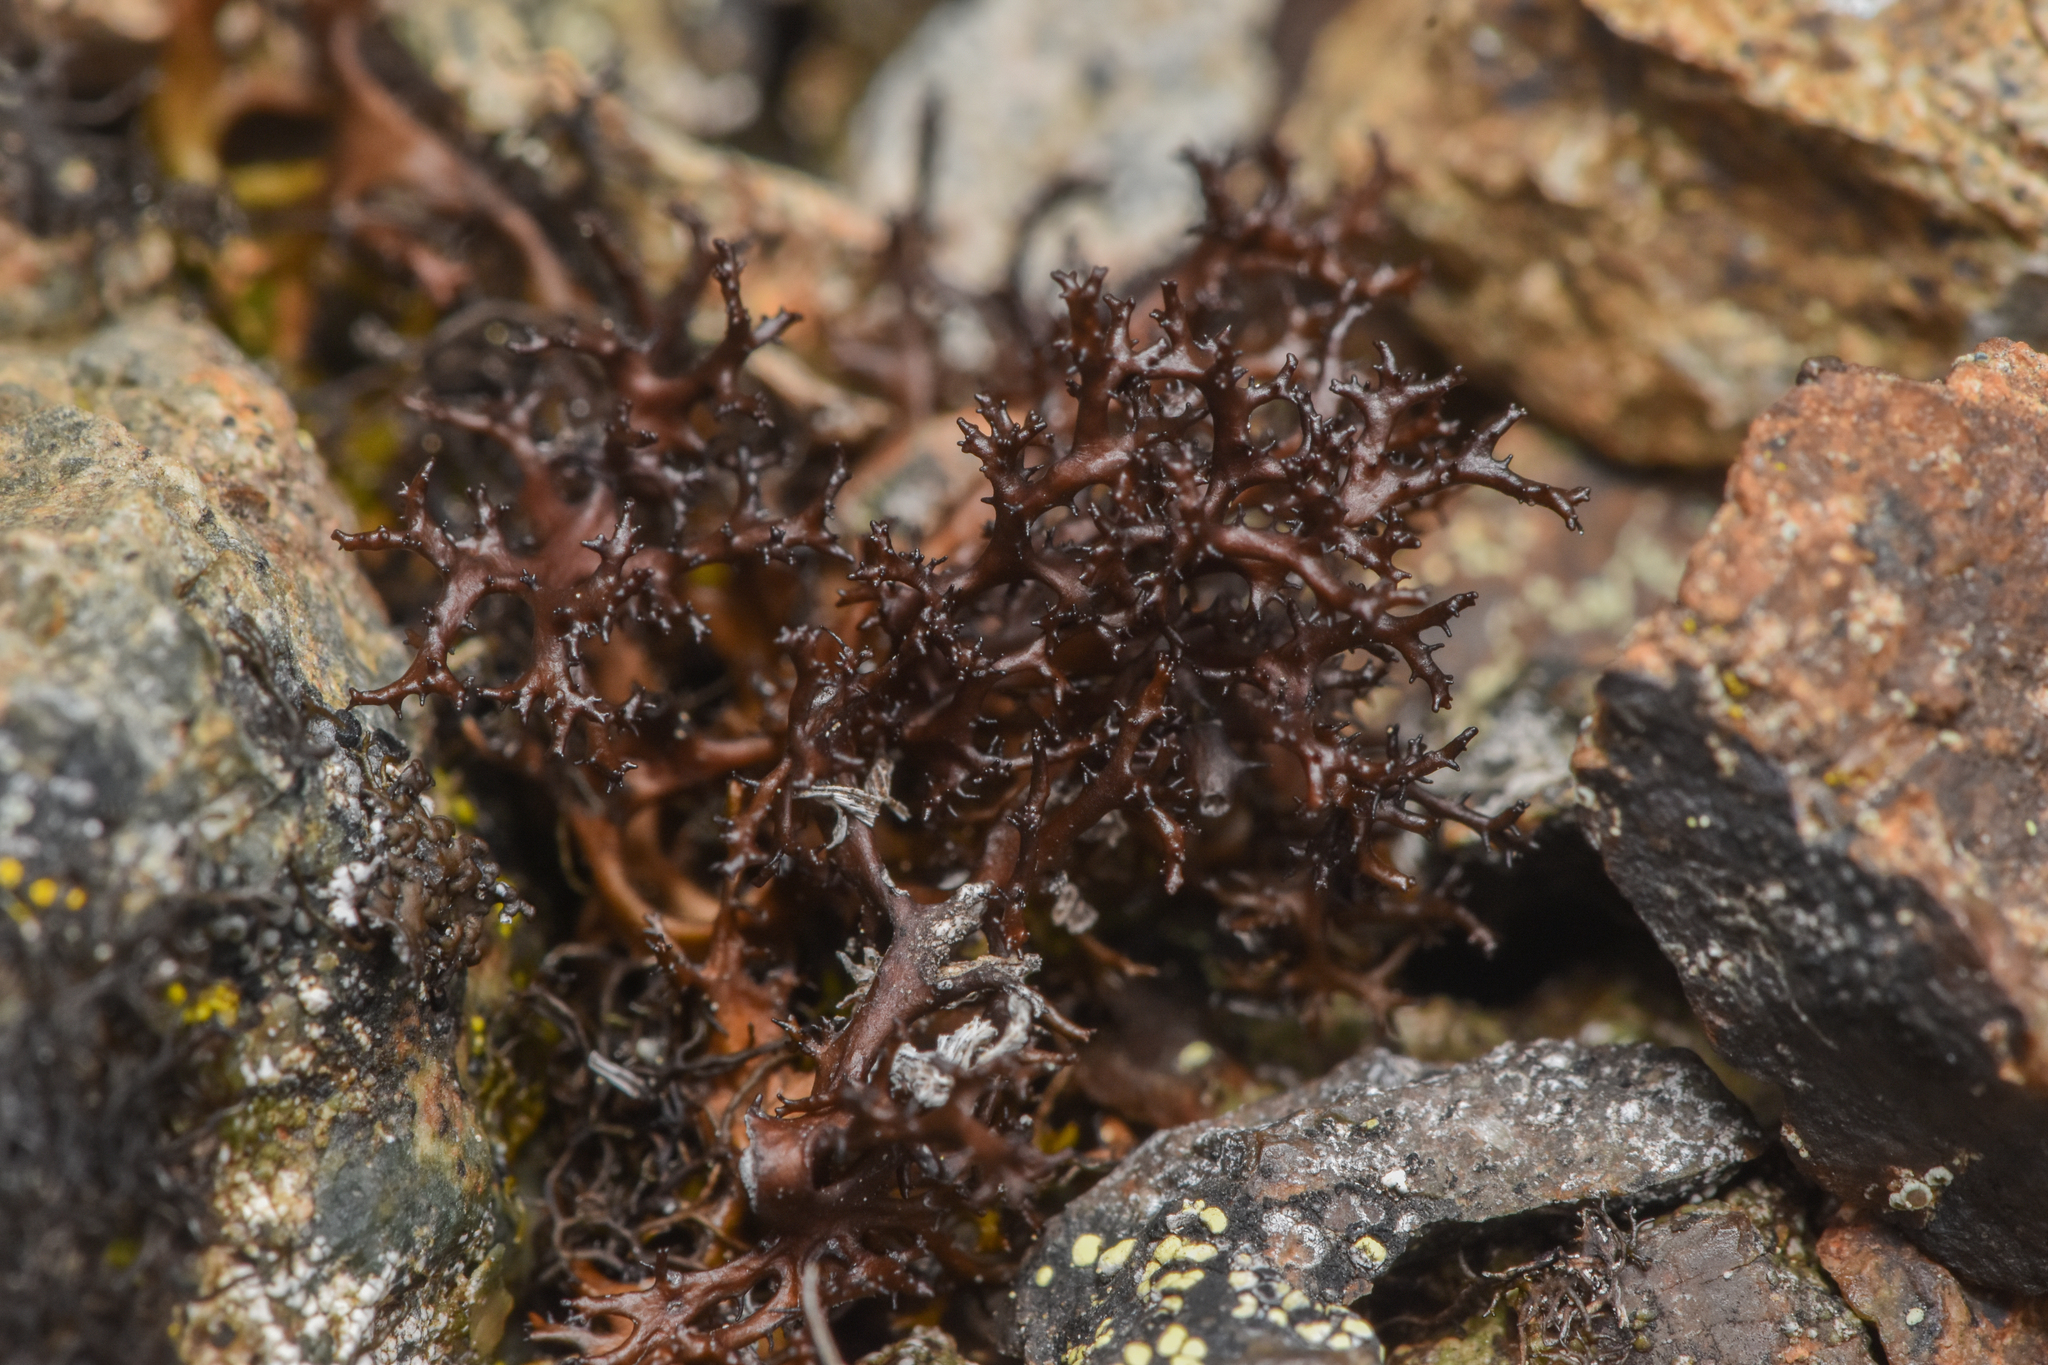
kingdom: Fungi
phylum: Ascomycota
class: Lecanoromycetes
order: Lecanorales
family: Parmeliaceae
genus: Cetraria
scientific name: Cetraria aculeata
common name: Spiny heath lichen
